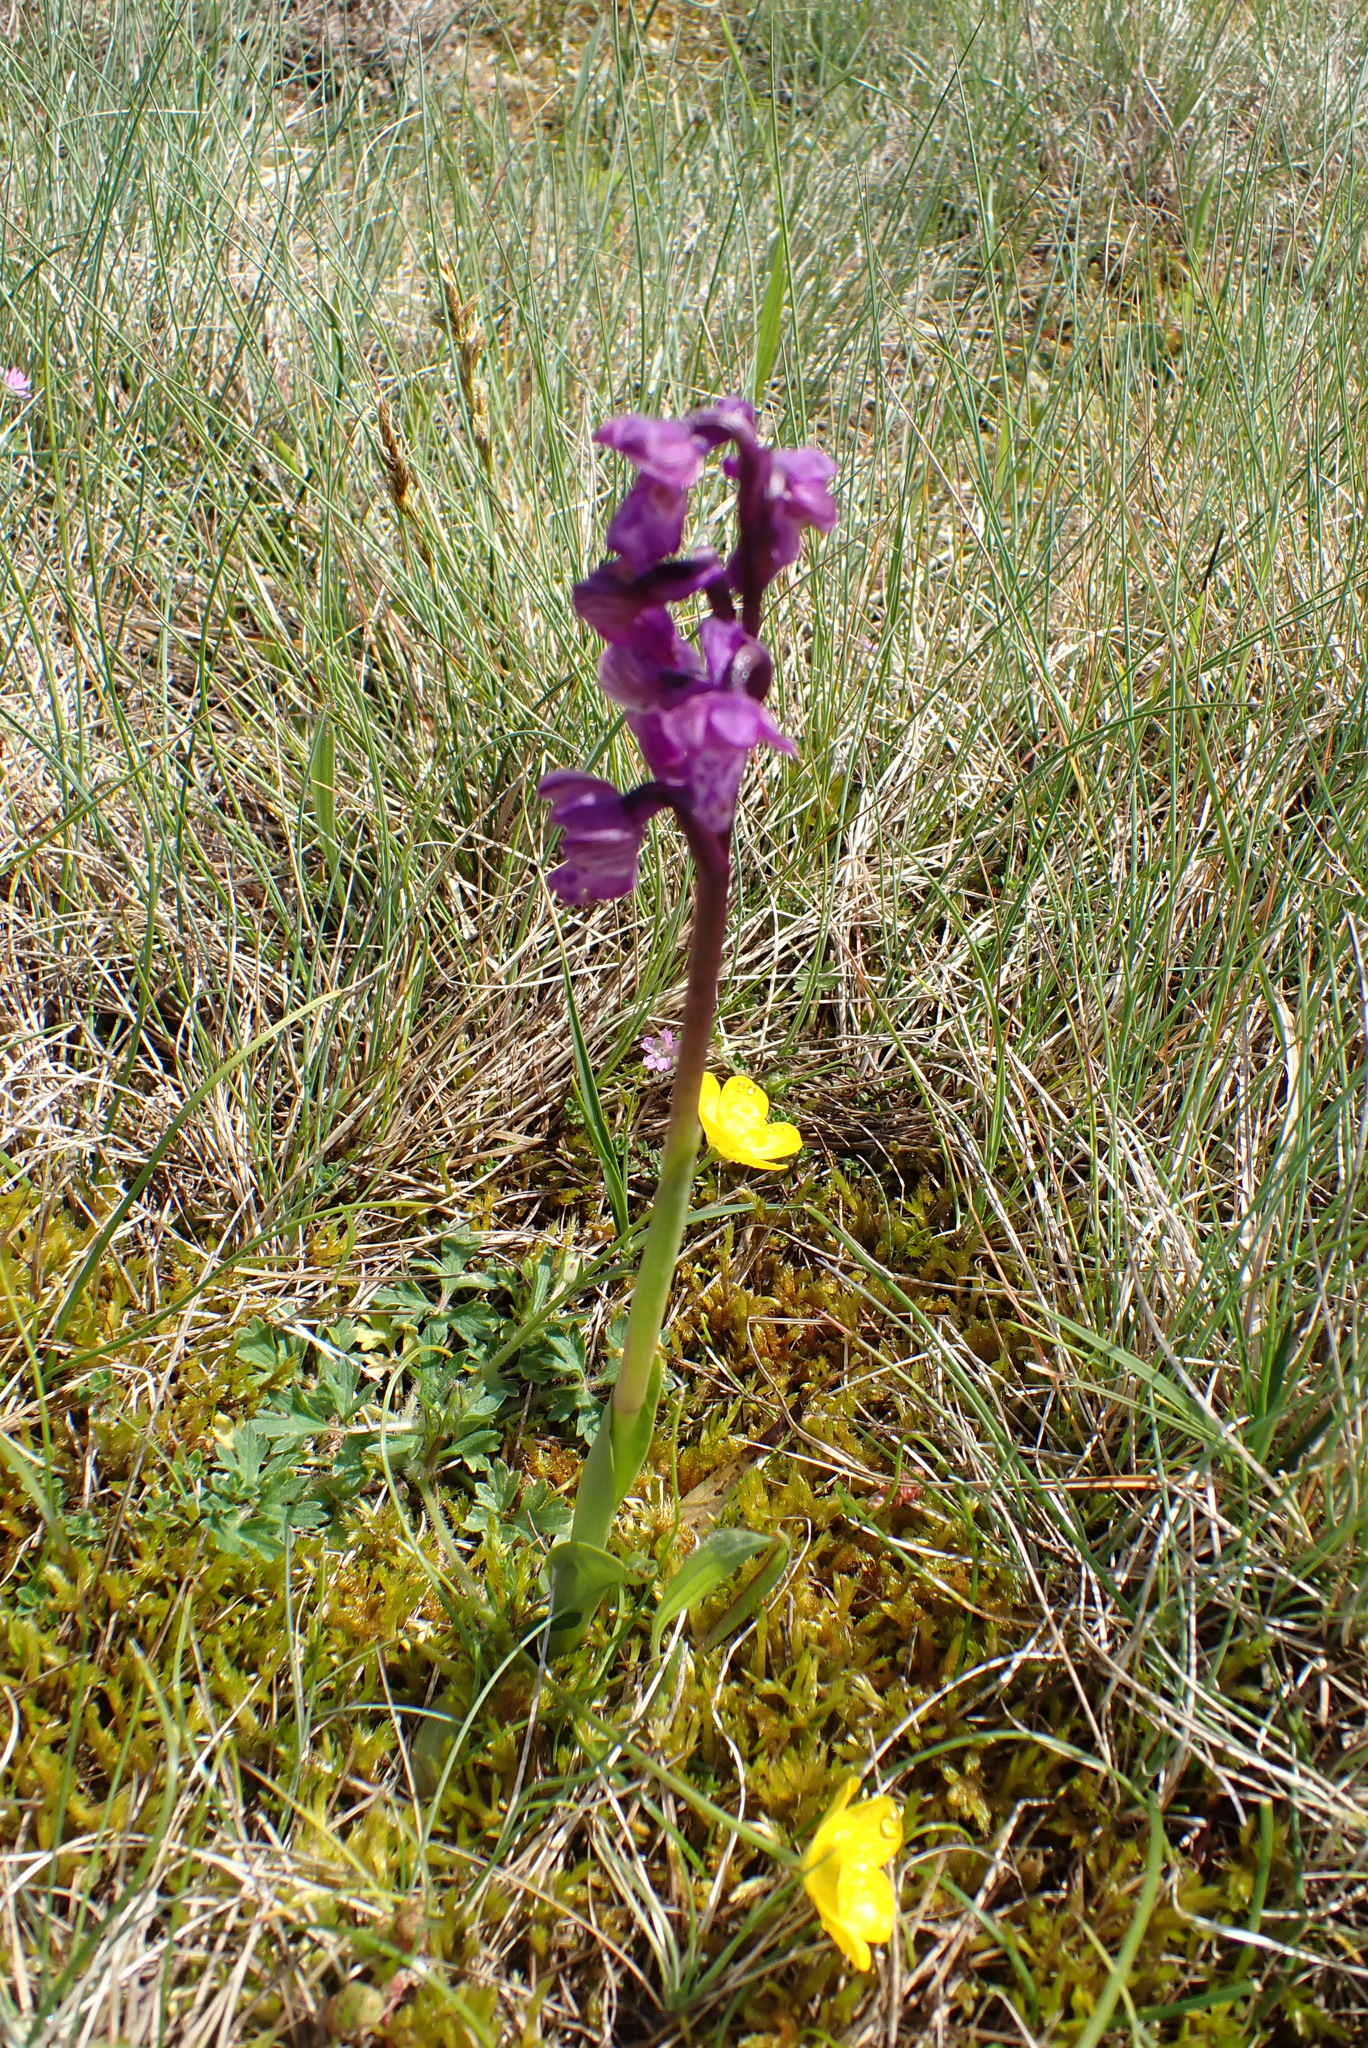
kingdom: Plantae
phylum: Tracheophyta
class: Liliopsida
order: Asparagales
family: Orchidaceae
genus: Anacamptis
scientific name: Anacamptis morio
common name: Green-winged orchid
